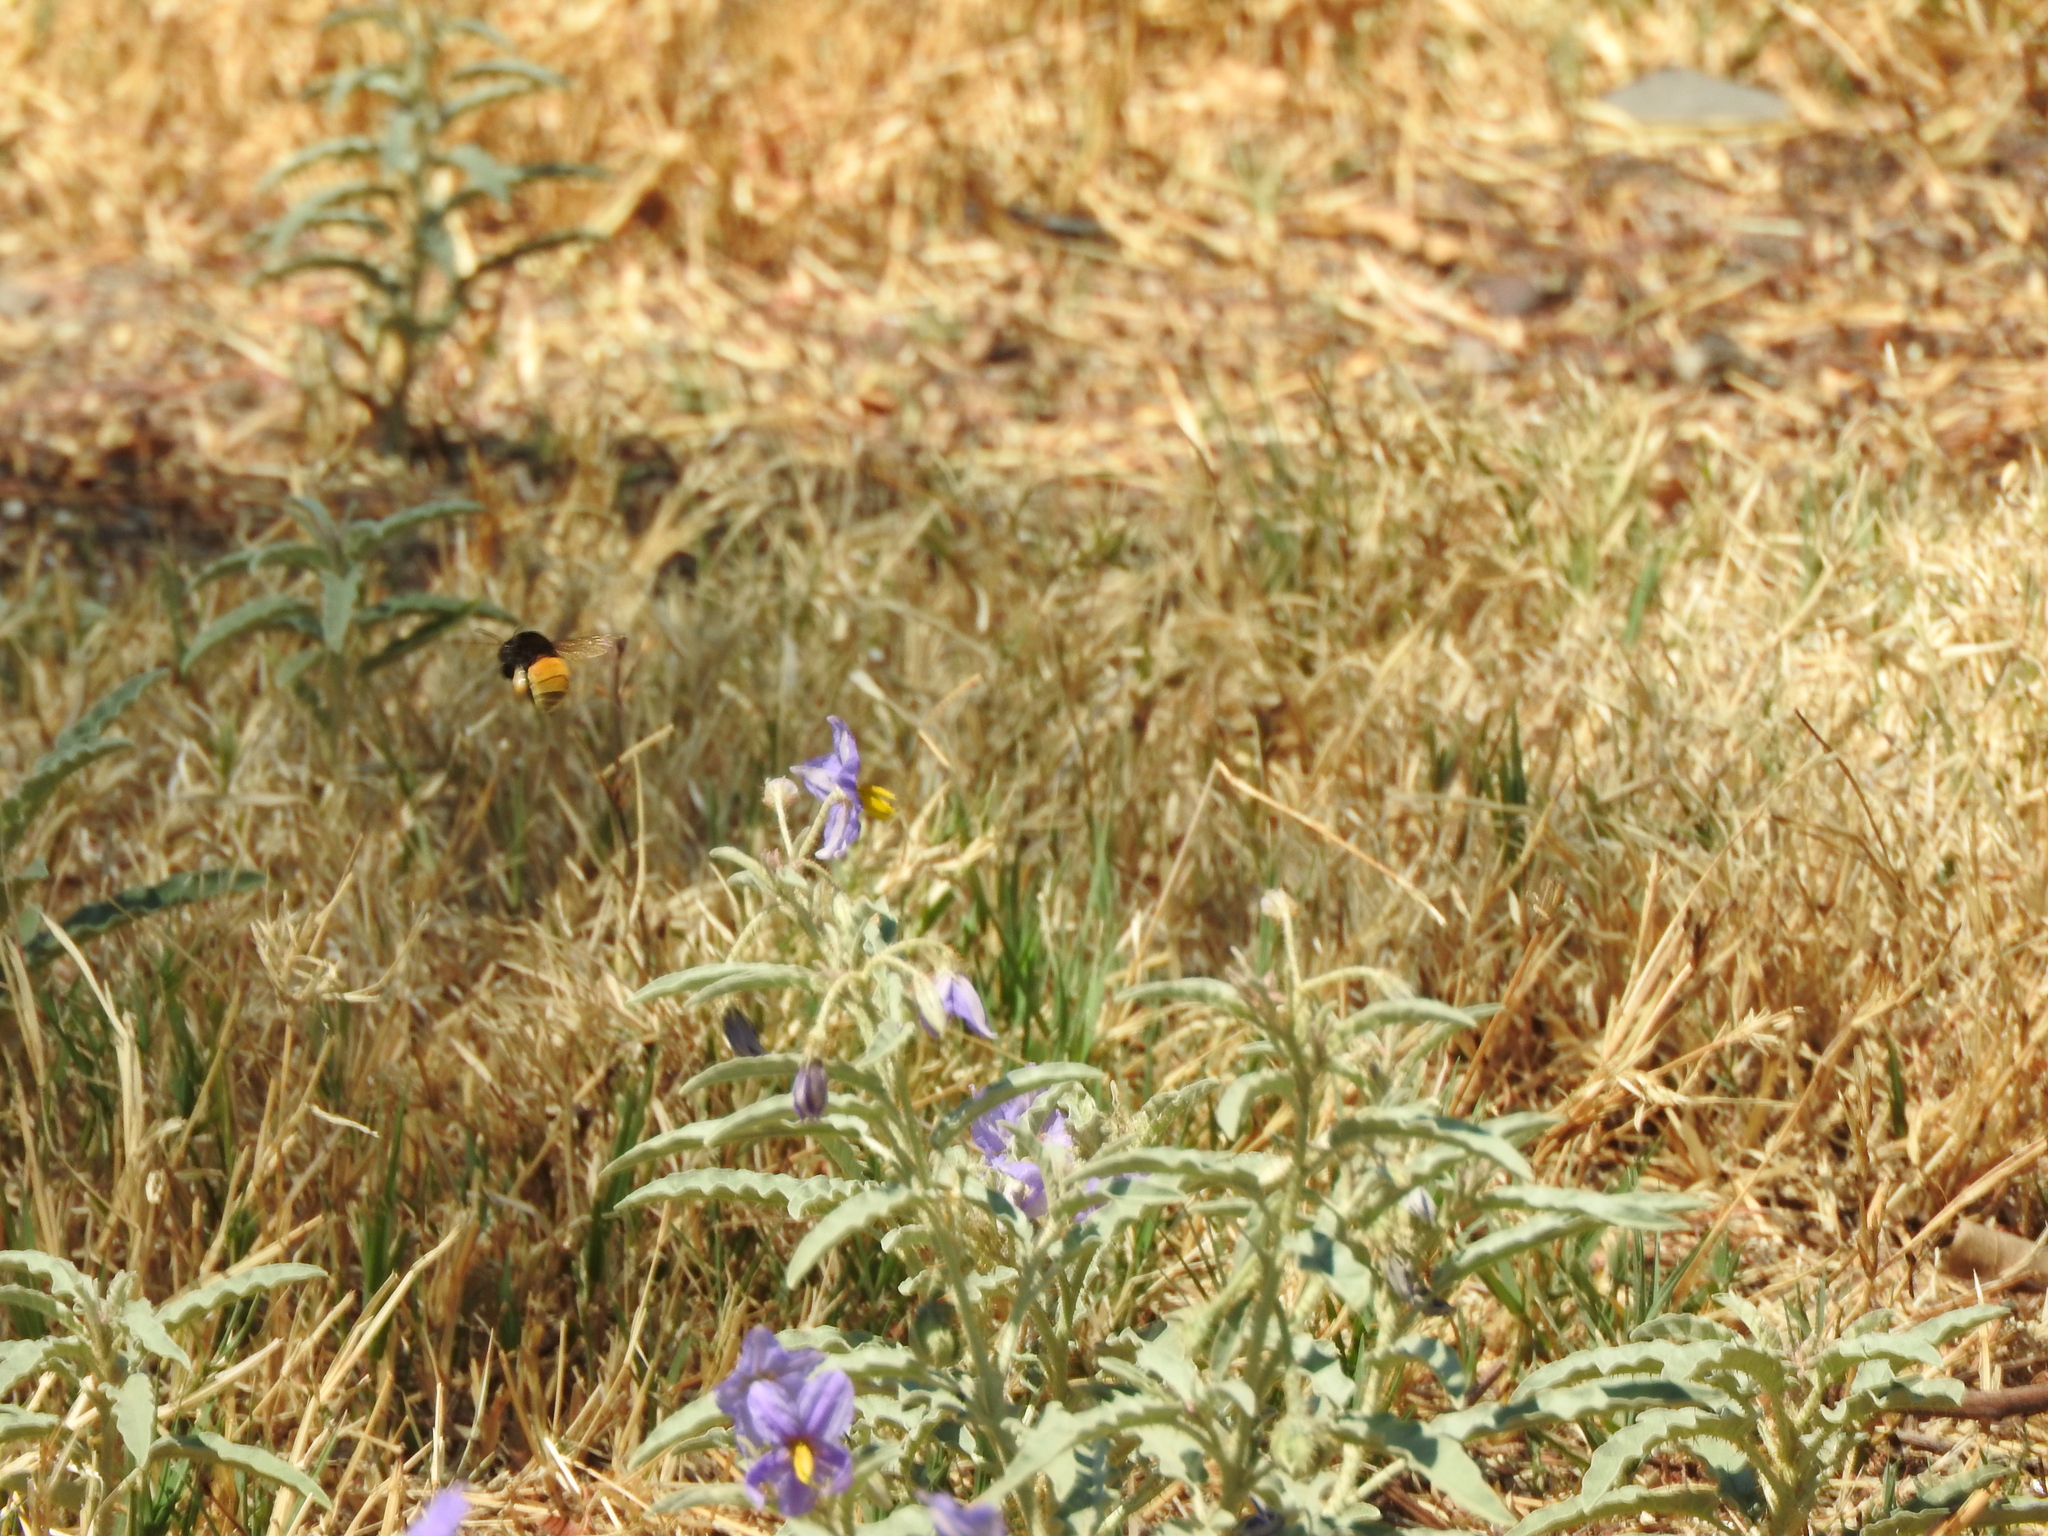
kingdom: Plantae
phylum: Tracheophyta
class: Magnoliopsida
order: Solanales
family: Solanaceae
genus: Solanum
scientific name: Solanum elaeagnifolium
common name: Silverleaf nightshade
